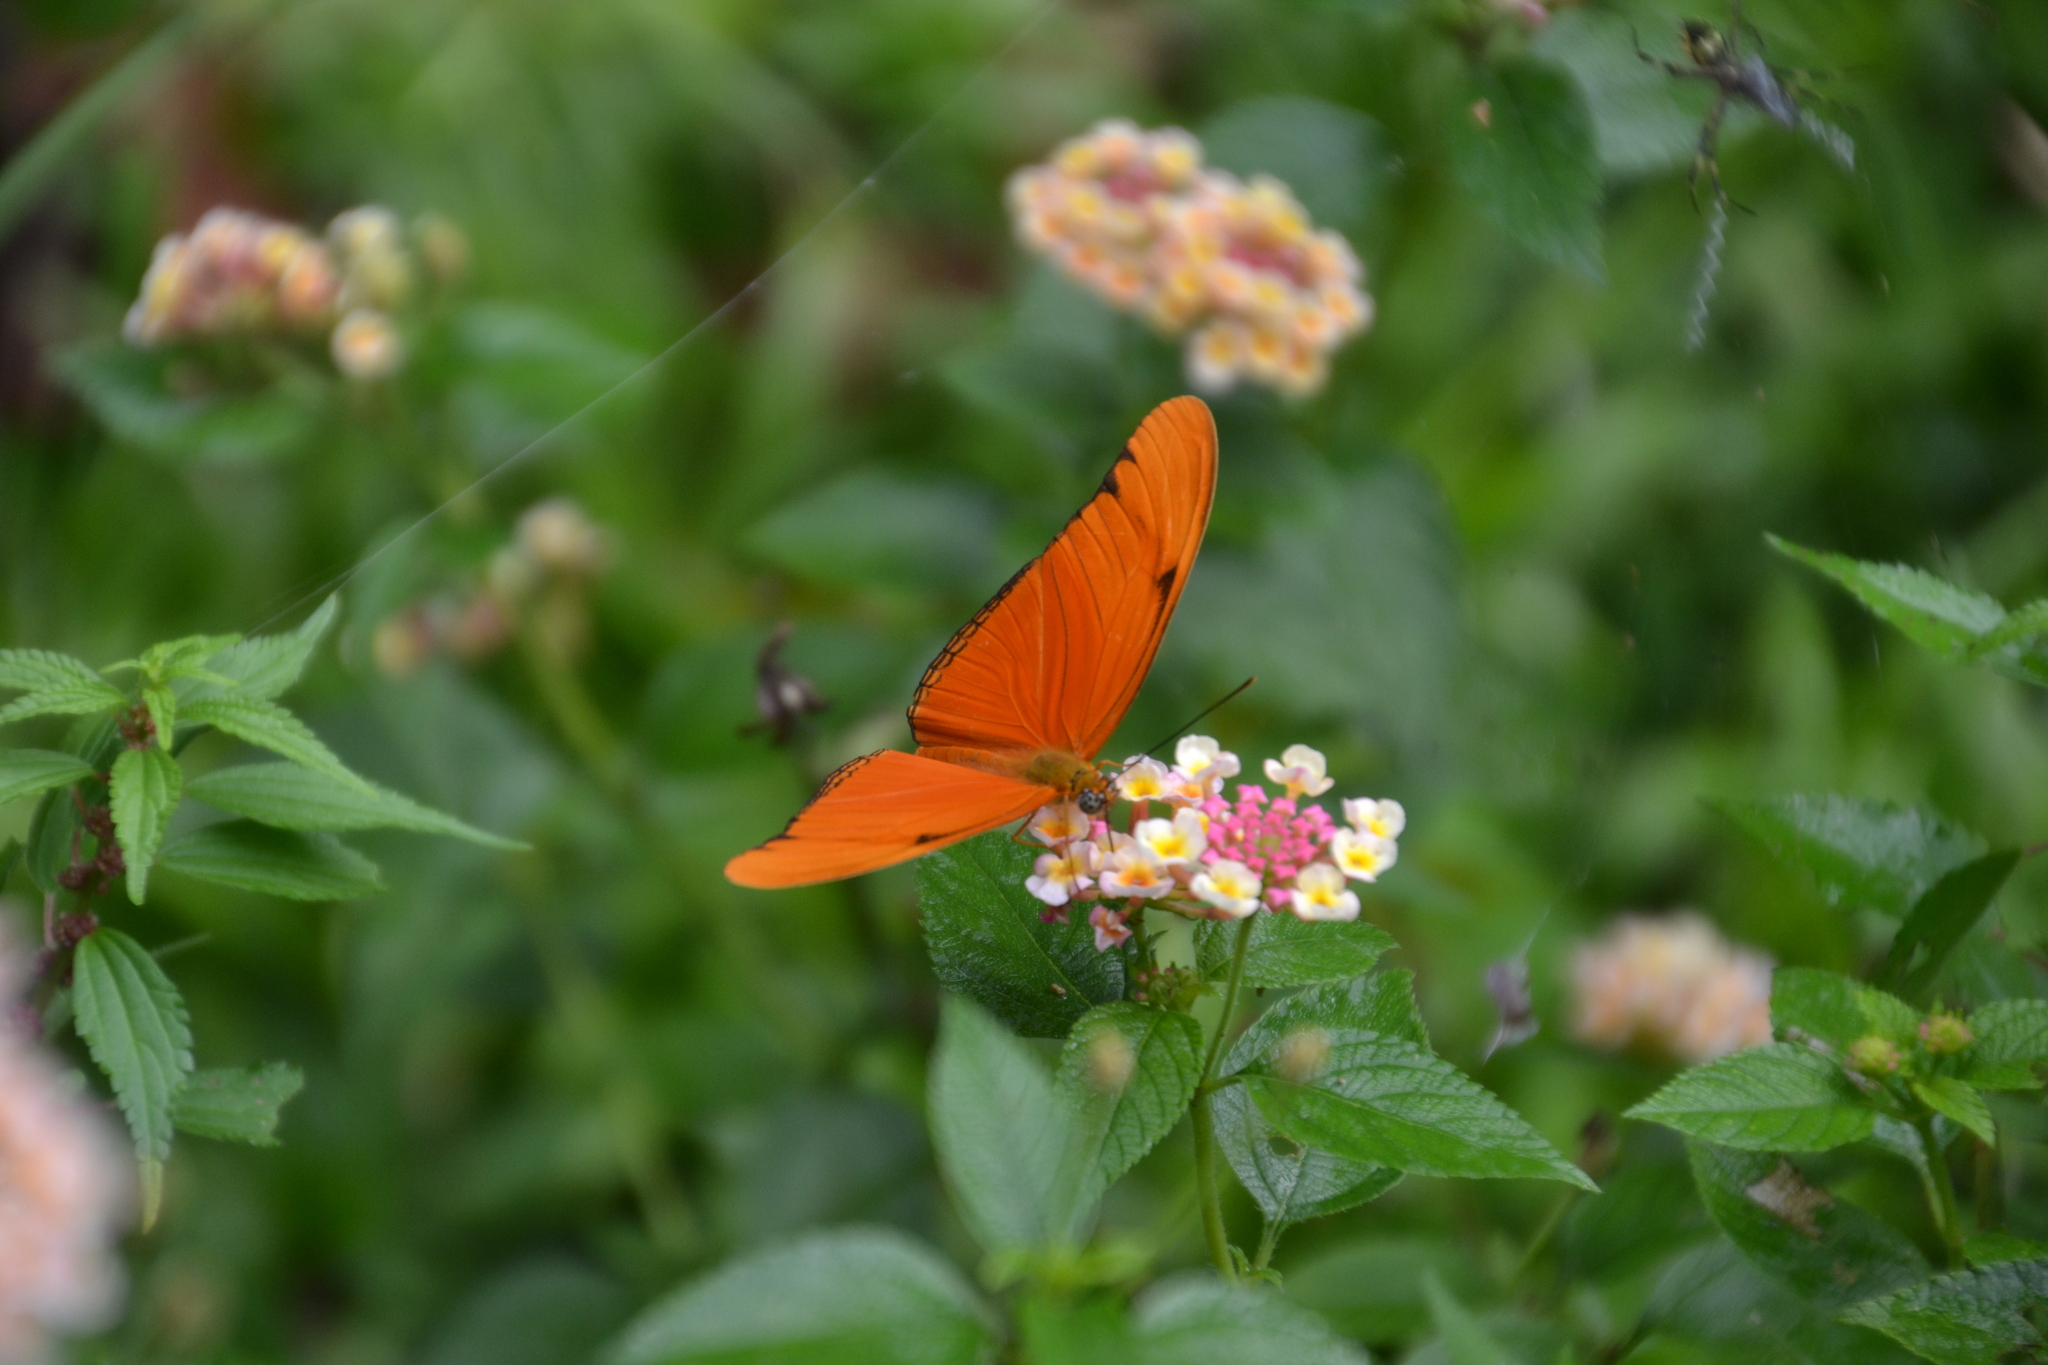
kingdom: Animalia
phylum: Arthropoda
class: Insecta
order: Lepidoptera
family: Nymphalidae
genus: Dryas
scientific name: Dryas iulia
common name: Flambeau
